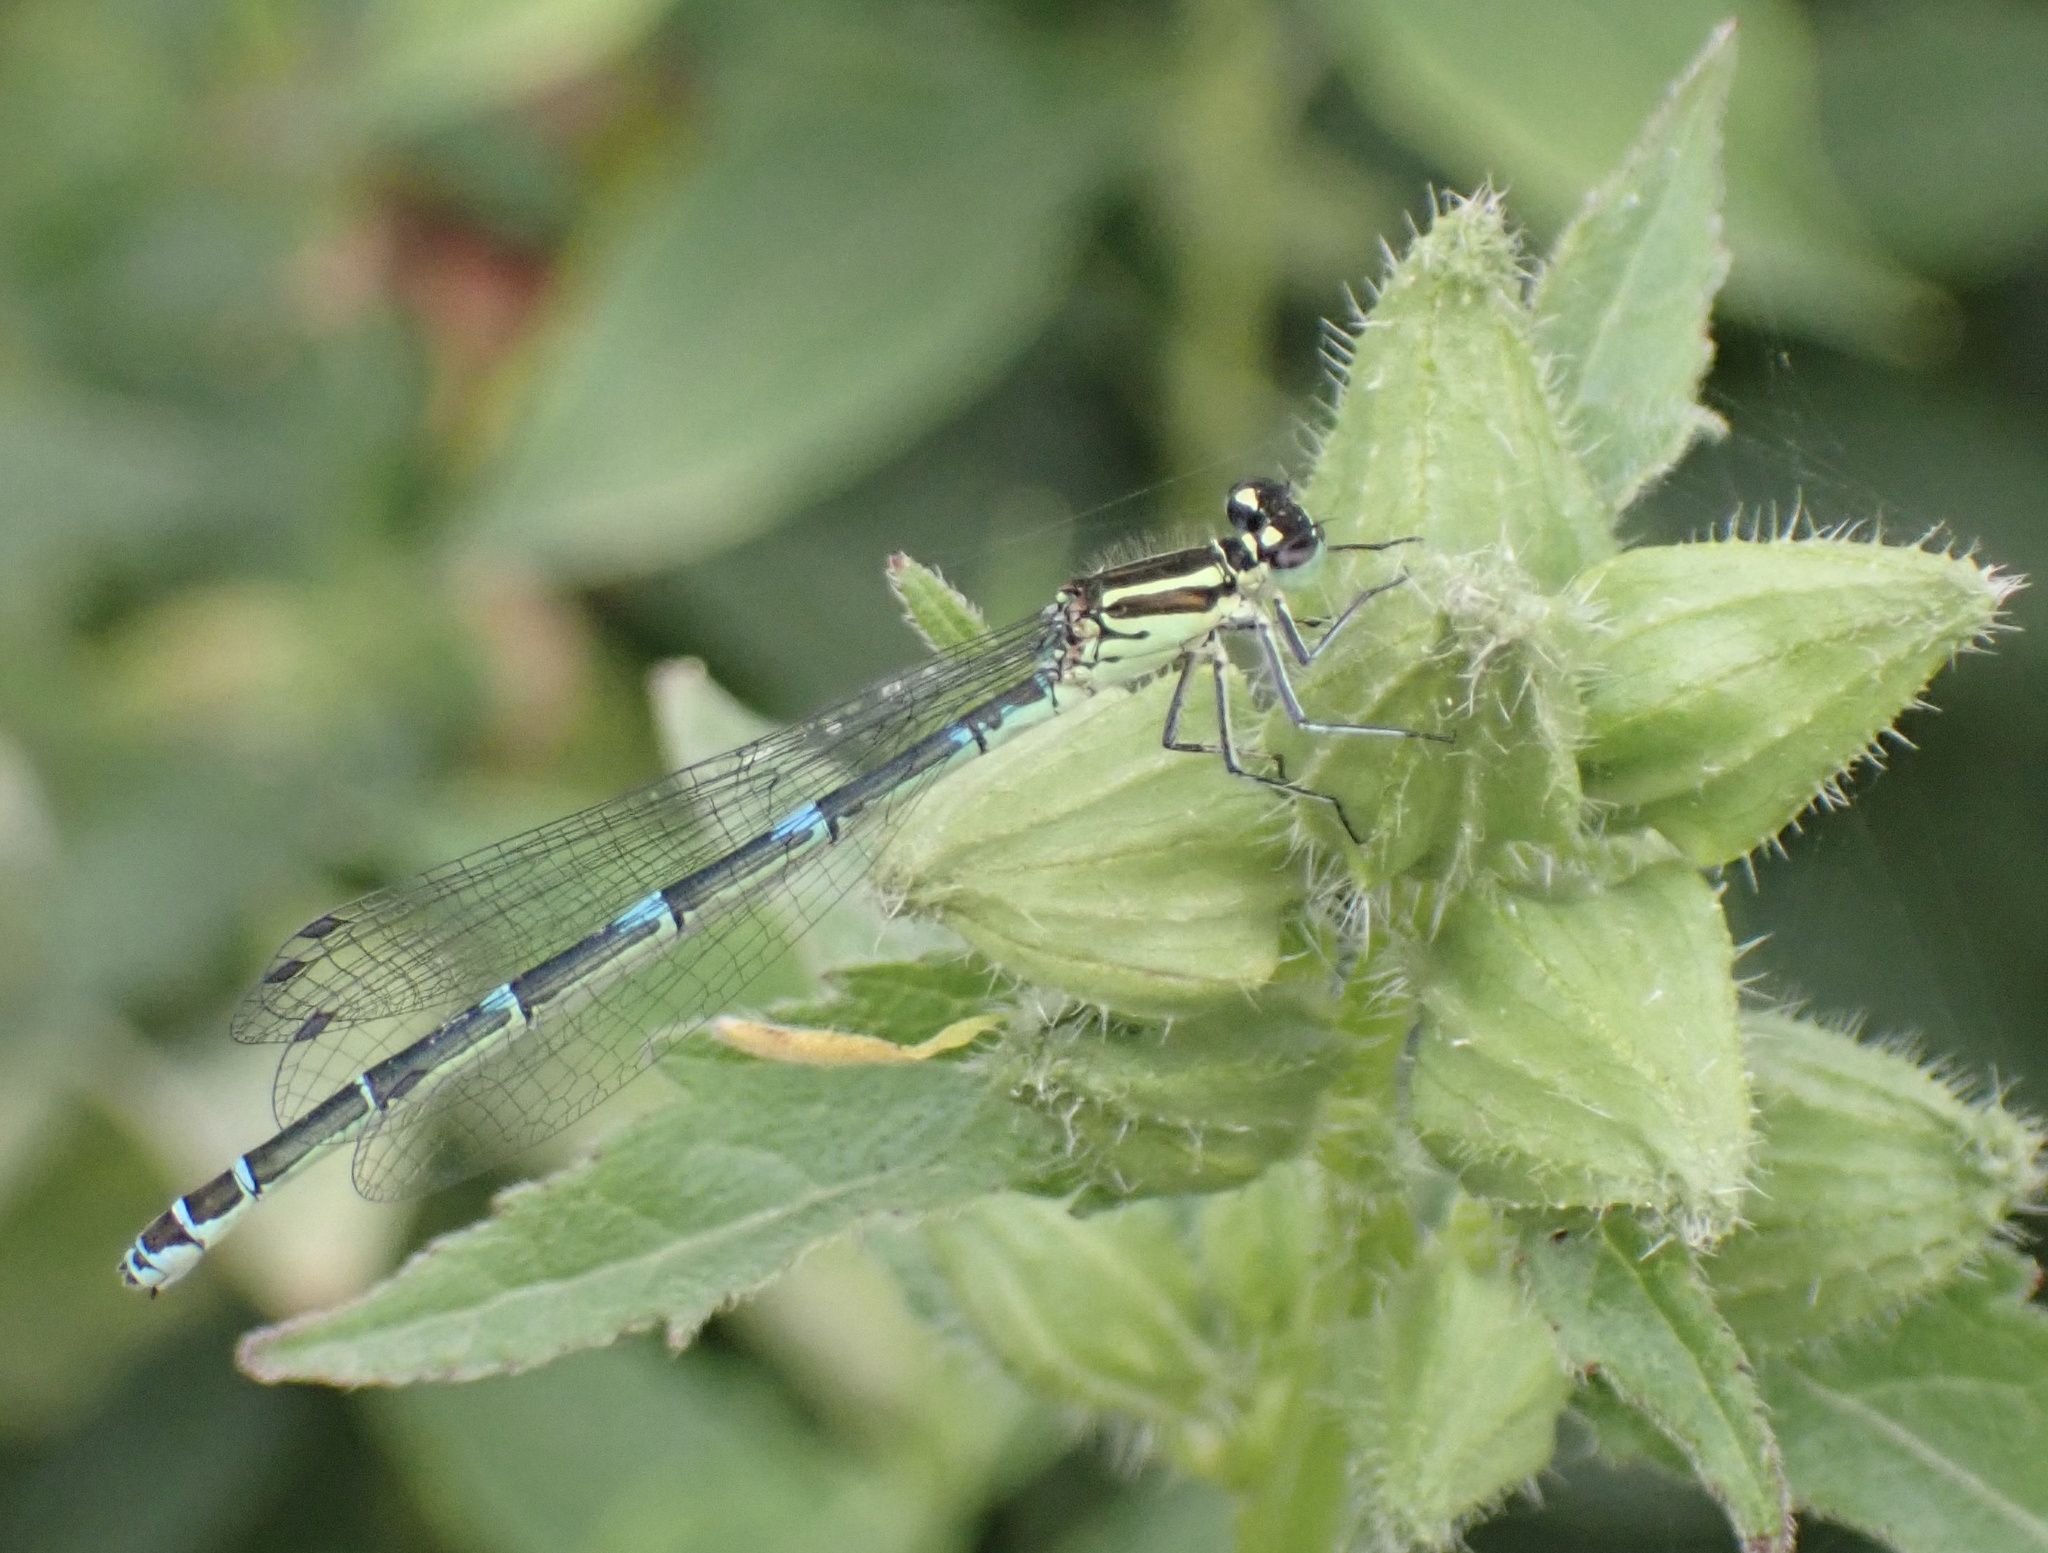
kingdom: Animalia
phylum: Arthropoda
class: Insecta
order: Odonata
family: Coenagrionidae
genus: Coenagrion
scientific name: Coenagrion puella
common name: Azure damselfly
